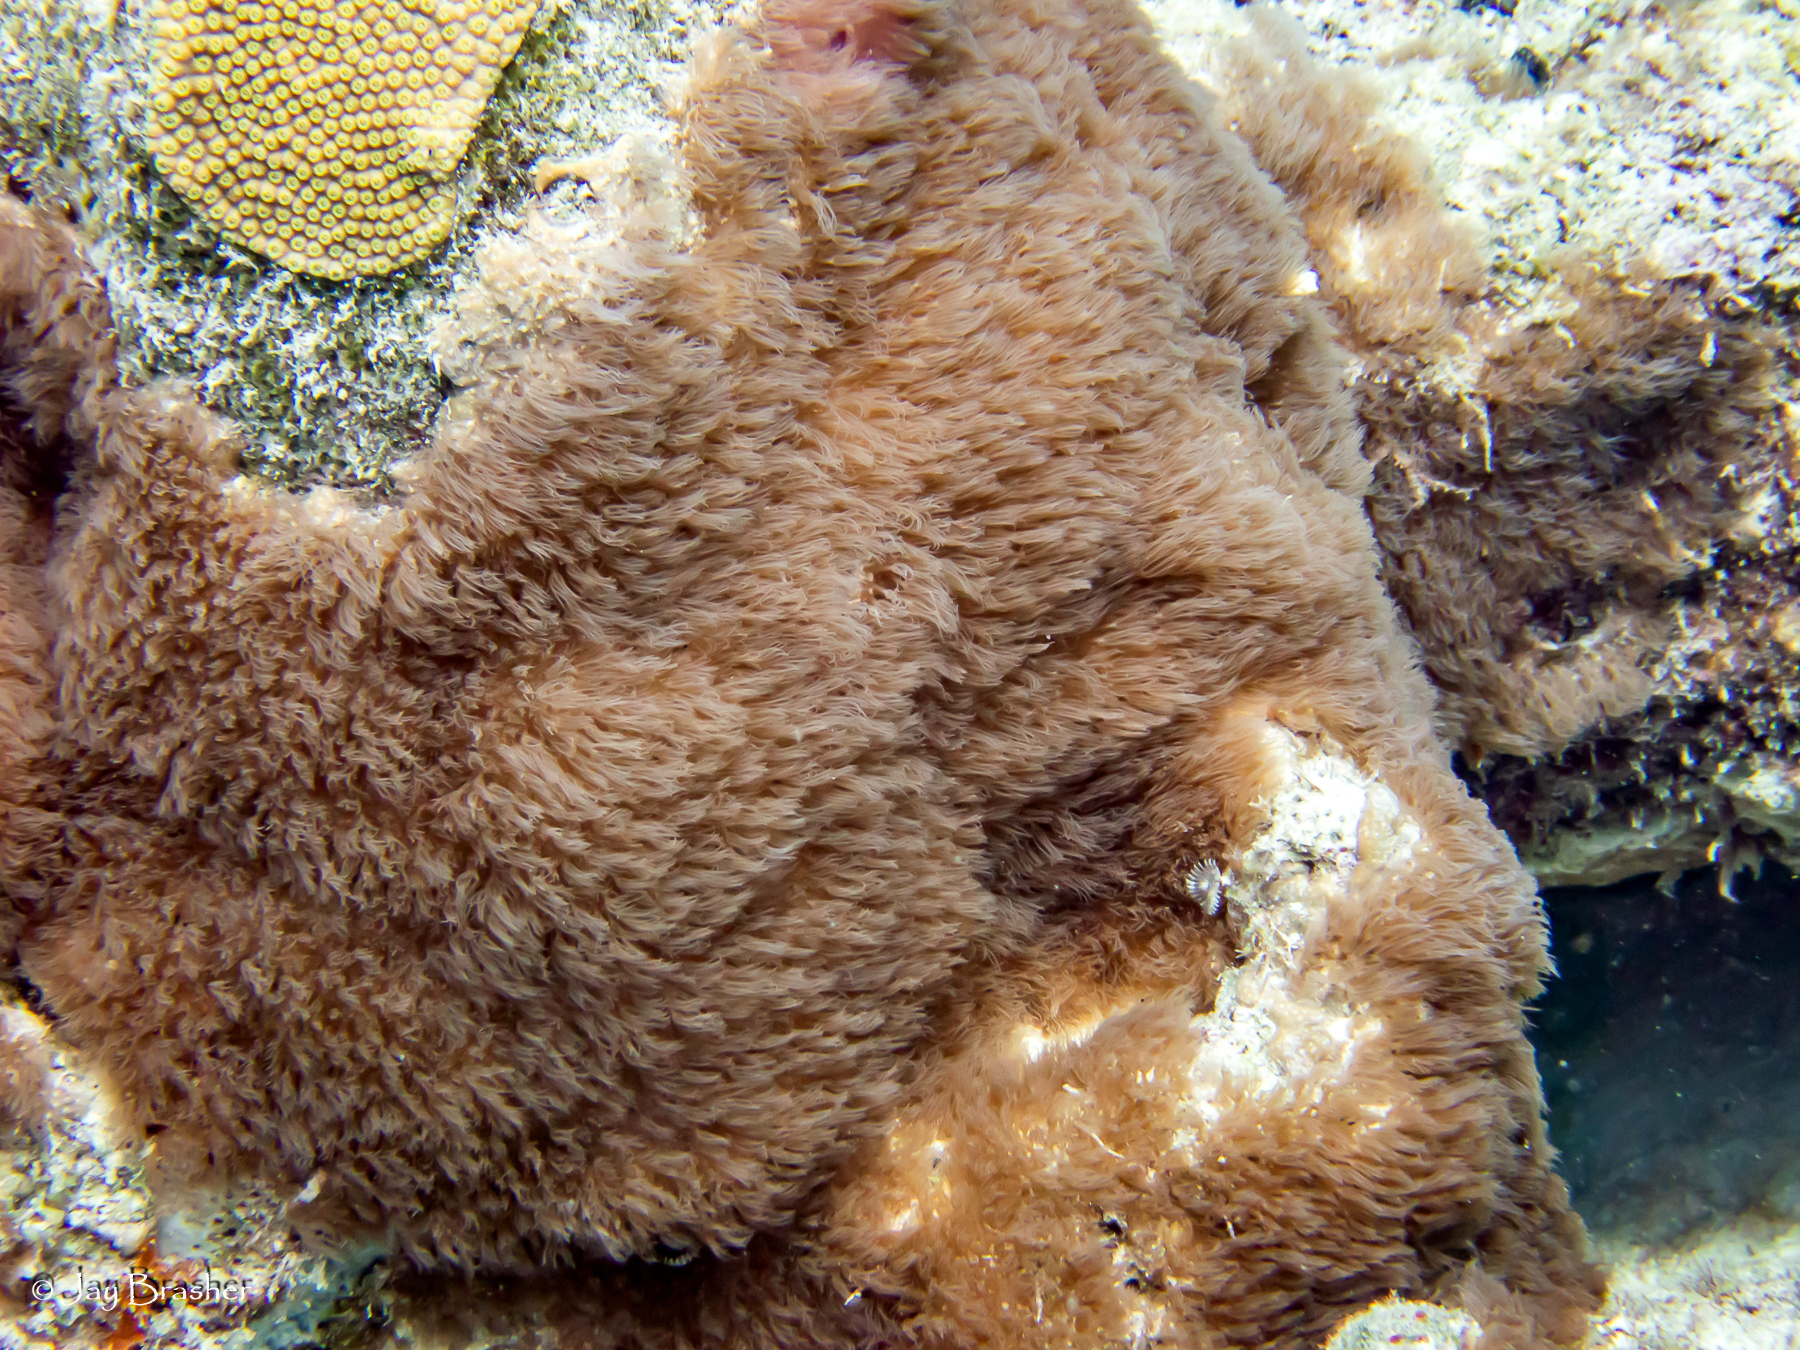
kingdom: Animalia
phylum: Cnidaria
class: Anthozoa
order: Scleralcyonacea
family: Erythropodiidae
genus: Erythropodium
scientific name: Erythropodium caribaeorum
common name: Encrusting gorgonian
